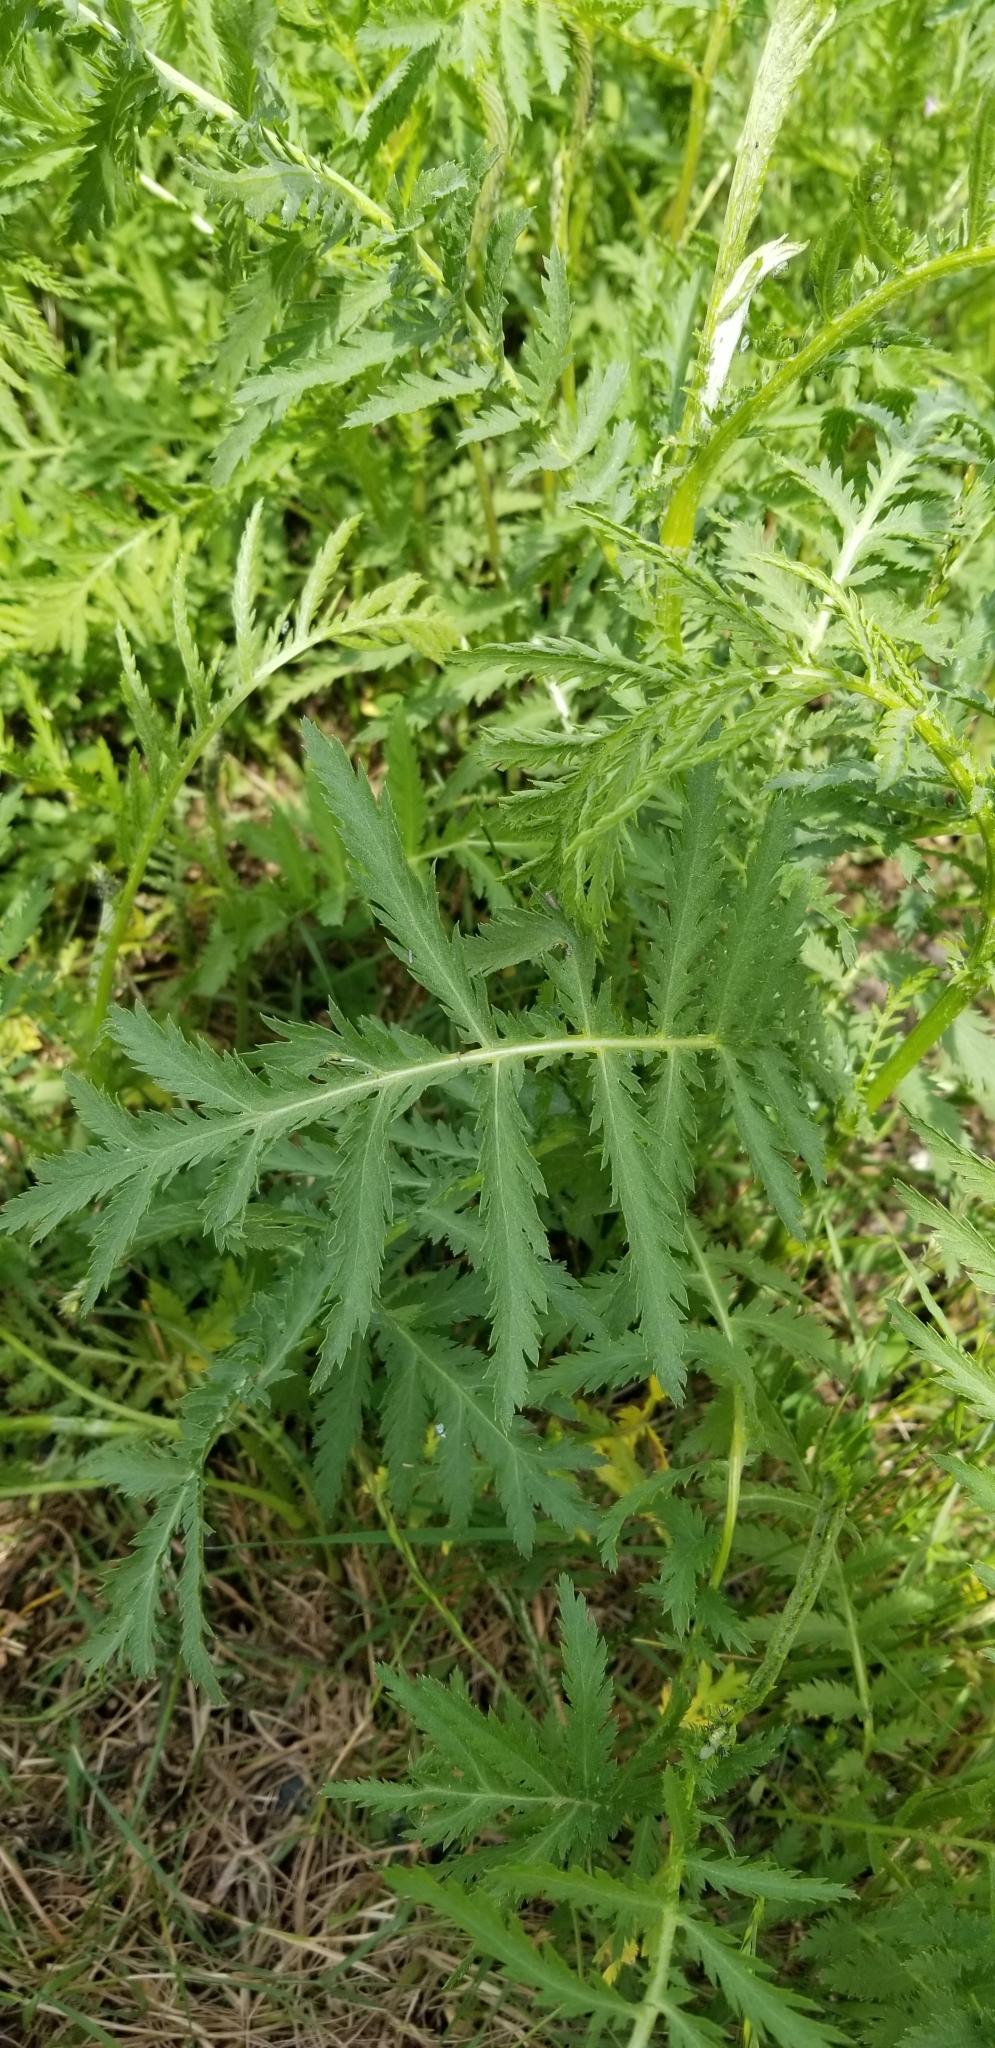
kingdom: Plantae
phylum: Tracheophyta
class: Magnoliopsida
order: Asterales
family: Asteraceae
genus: Tanacetum
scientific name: Tanacetum vulgare
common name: Common tansy
